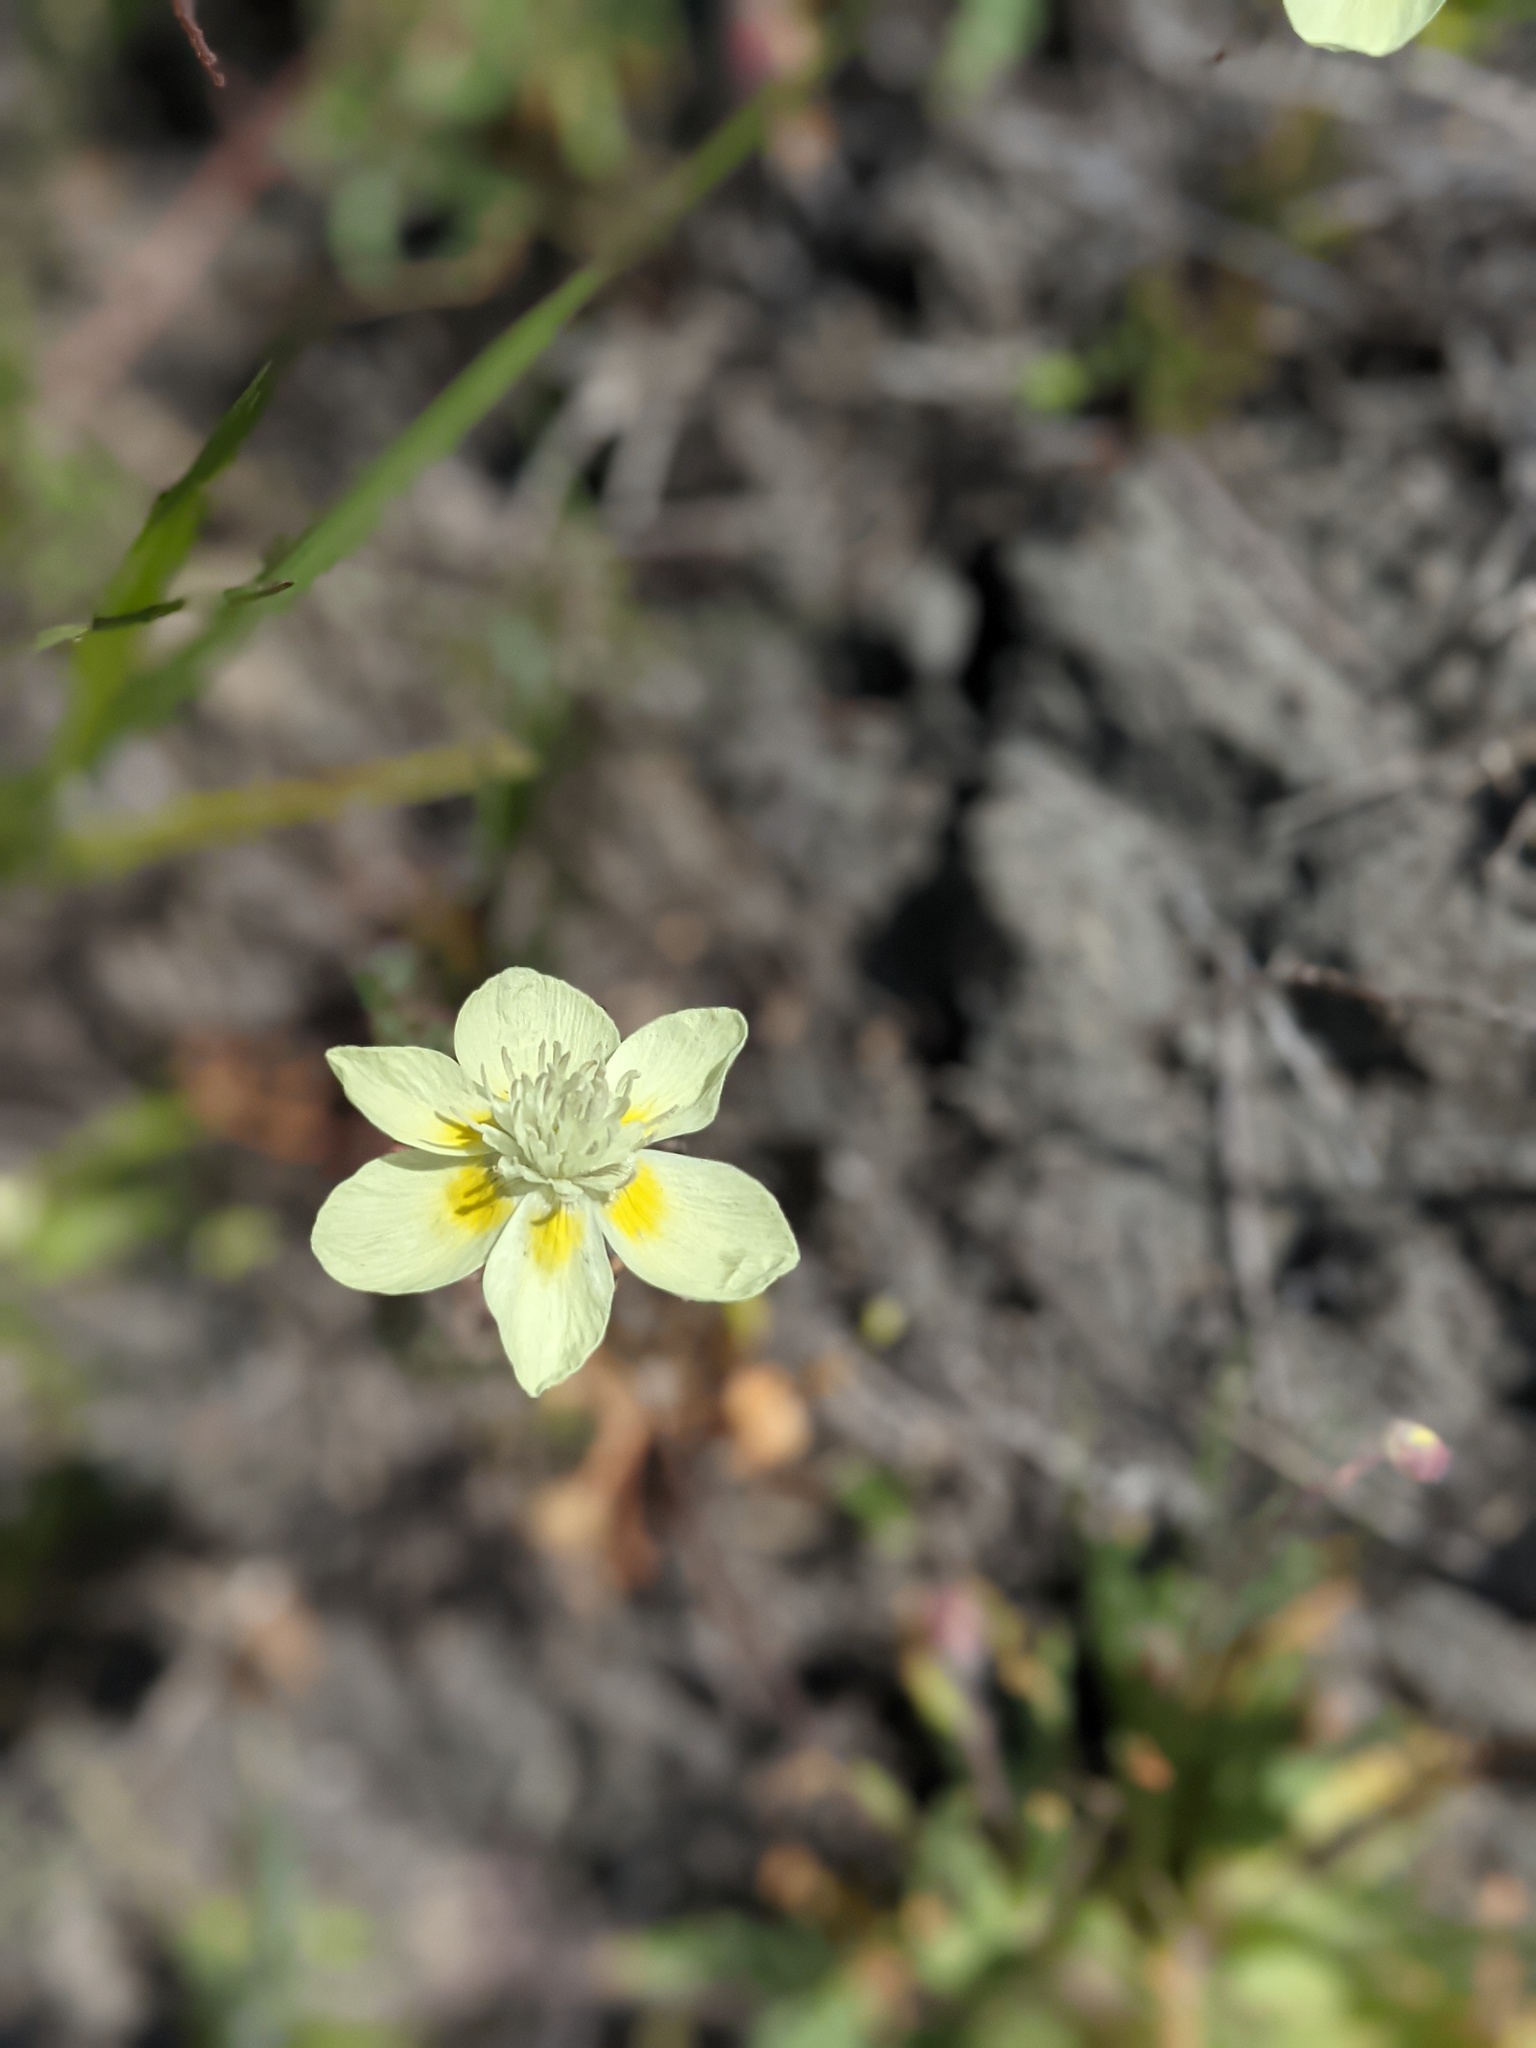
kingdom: Plantae
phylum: Tracheophyta
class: Magnoliopsida
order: Ranunculales
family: Papaveraceae
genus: Platystemon
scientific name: Platystemon californicus
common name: Cream-cups
